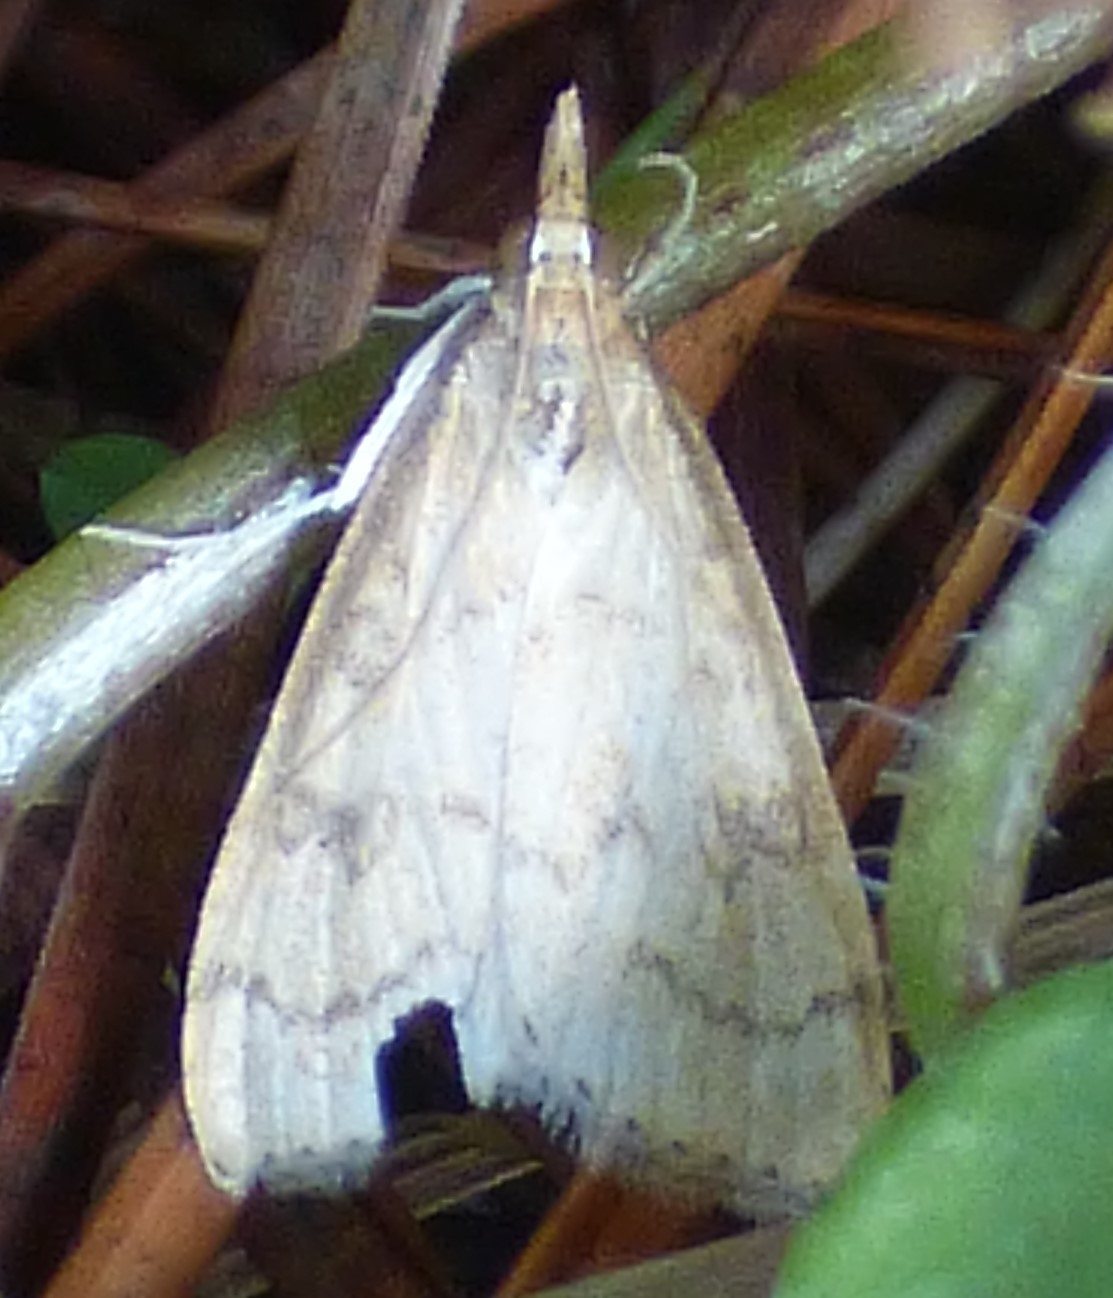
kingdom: Animalia
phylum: Arthropoda
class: Insecta
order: Lepidoptera
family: Crambidae
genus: Udea
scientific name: Udea rubigalis
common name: Celery leaftier moth
